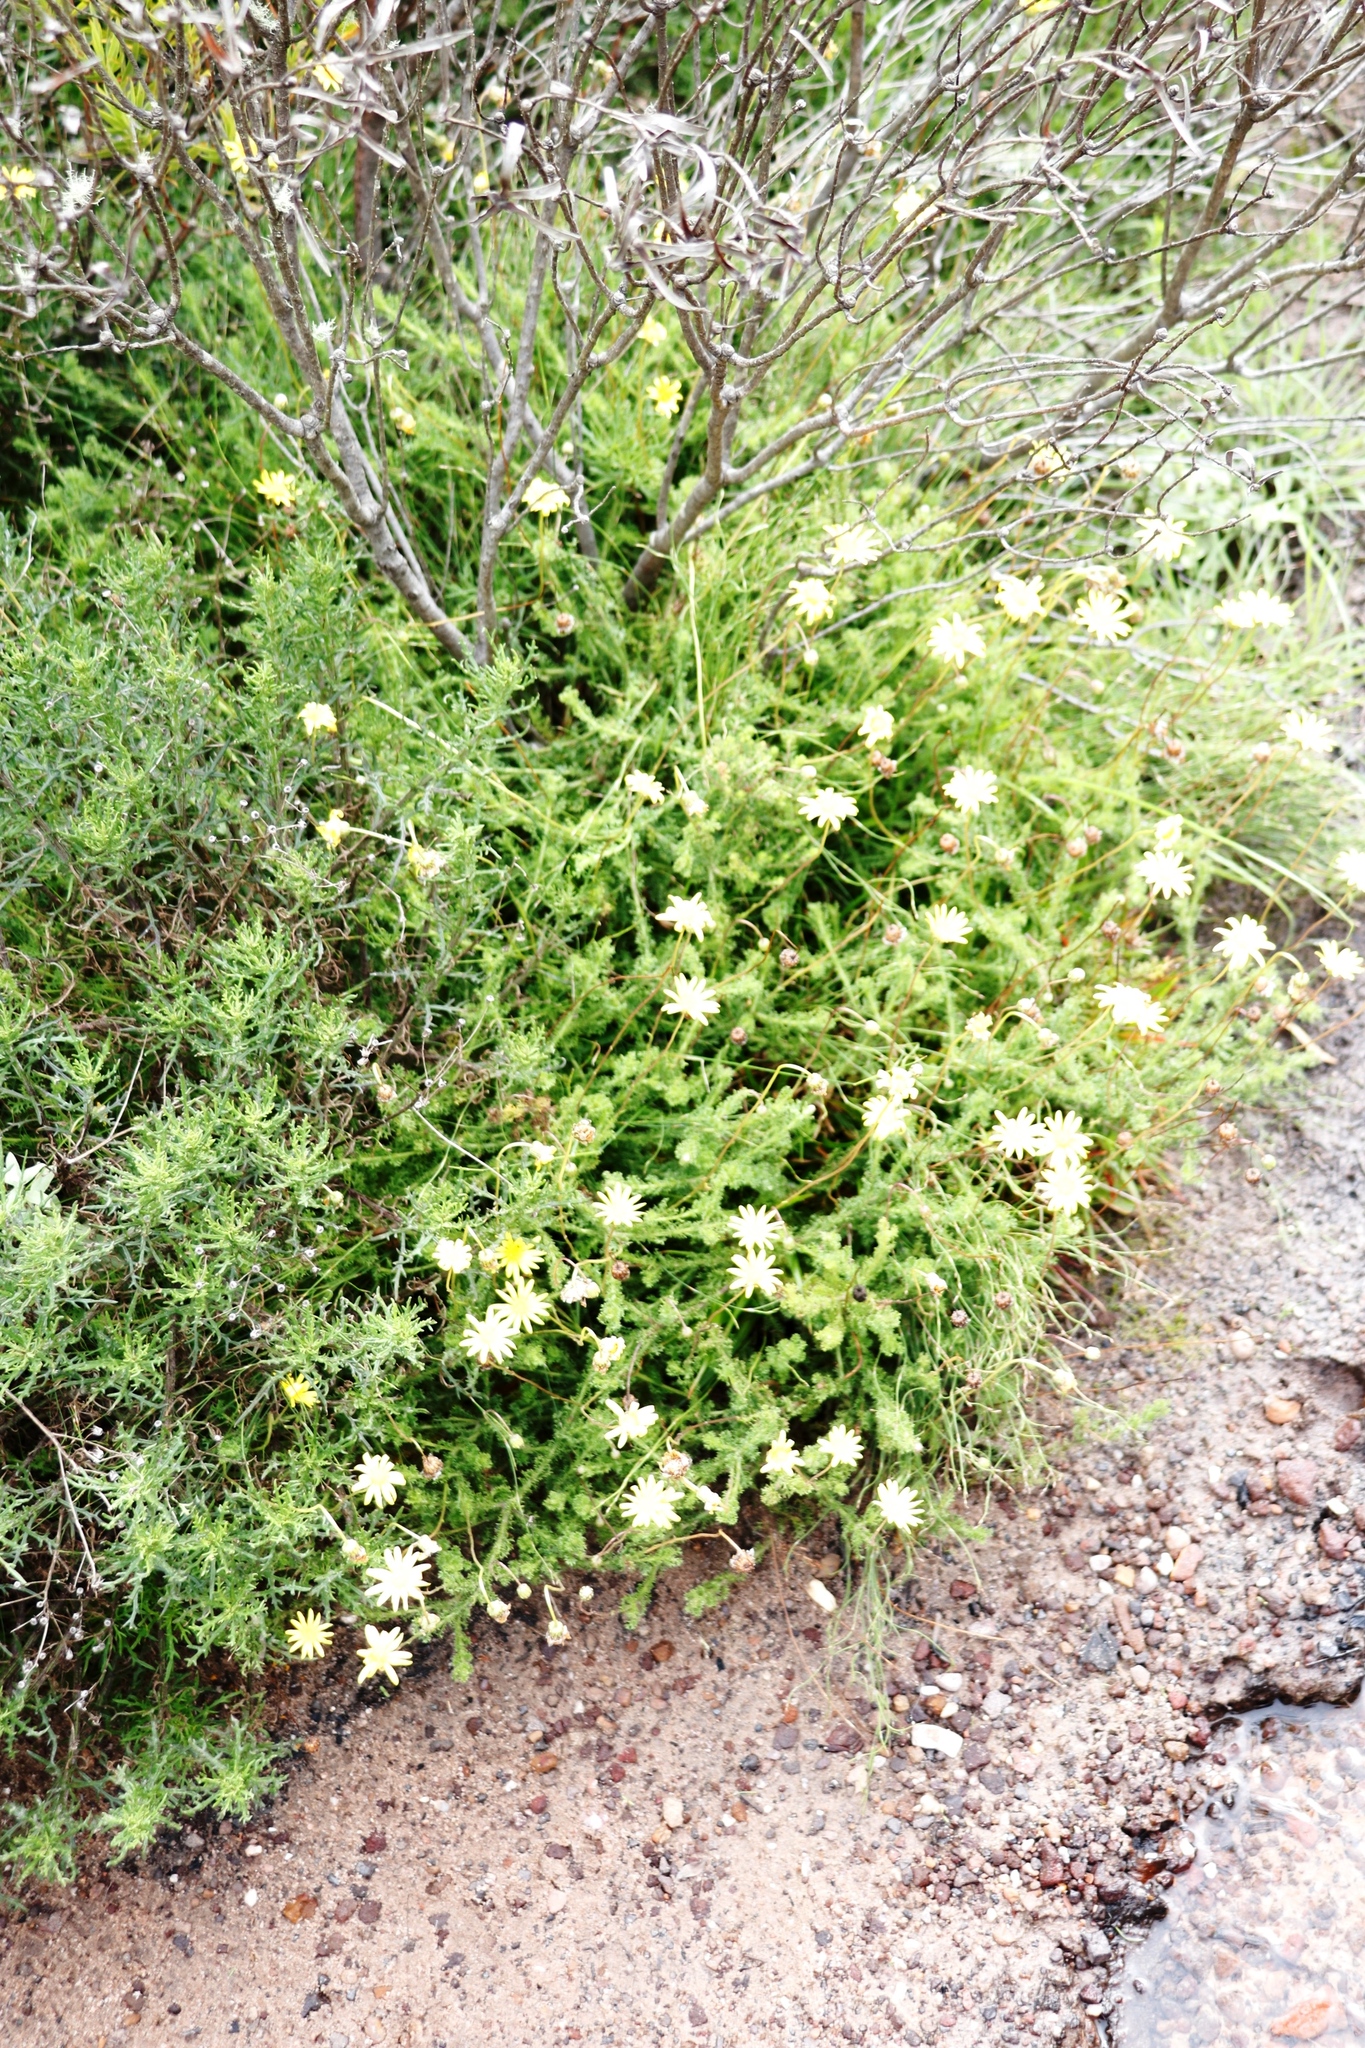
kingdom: Plantae
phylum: Tracheophyta
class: Magnoliopsida
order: Asterales
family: Asteraceae
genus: Ursinia
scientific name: Ursinia dentata
